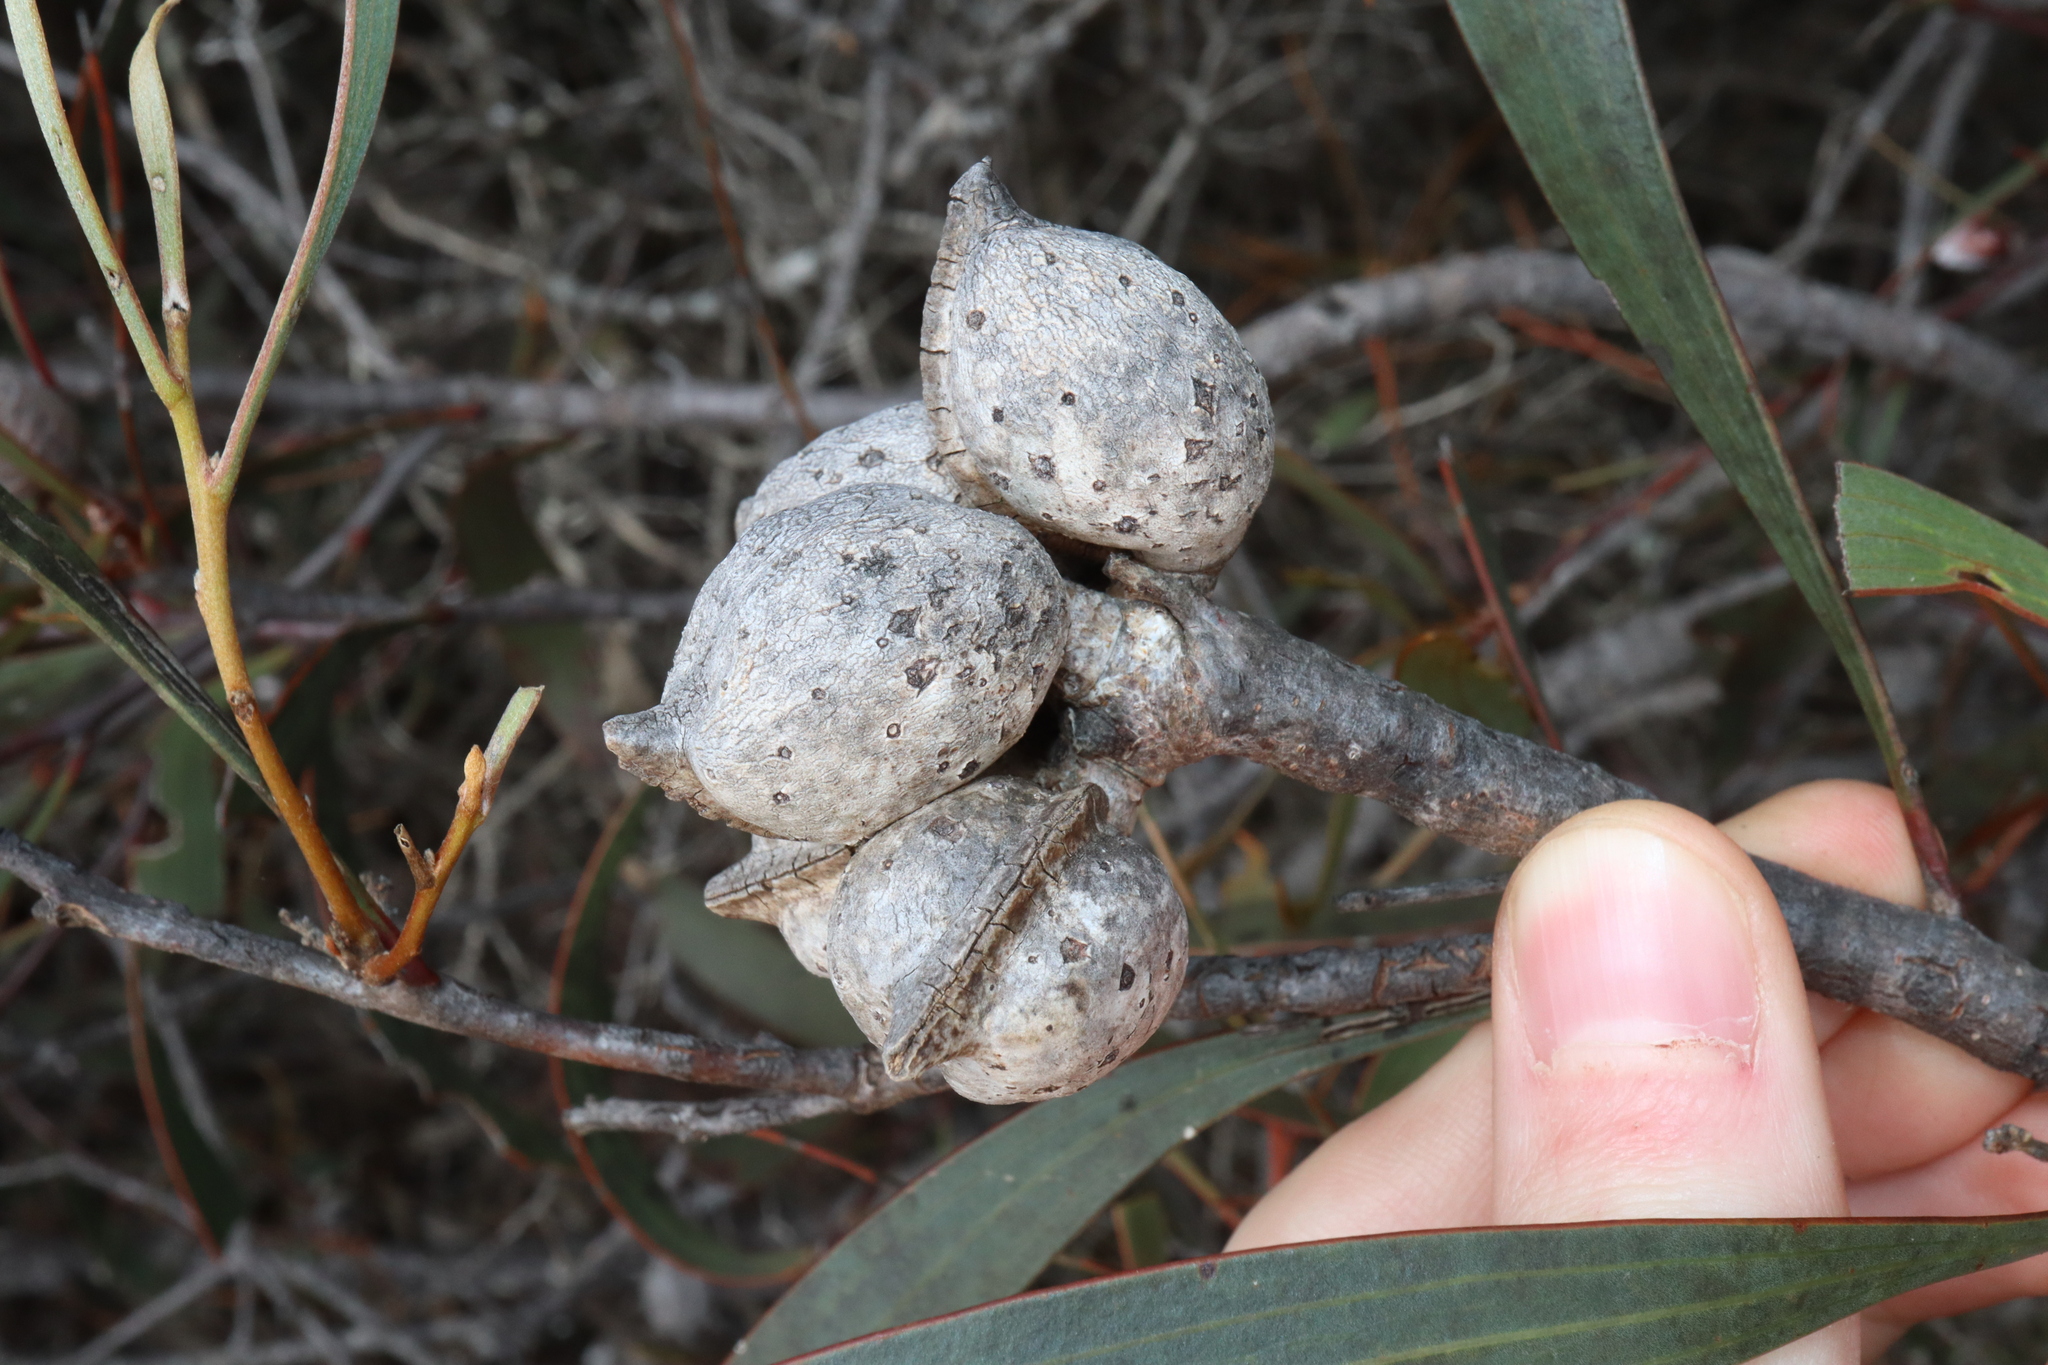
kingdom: Plantae
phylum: Tracheophyta
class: Magnoliopsida
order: Proteales
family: Proteaceae
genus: Hakea
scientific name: Hakea laurina
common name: Cushion hakea
